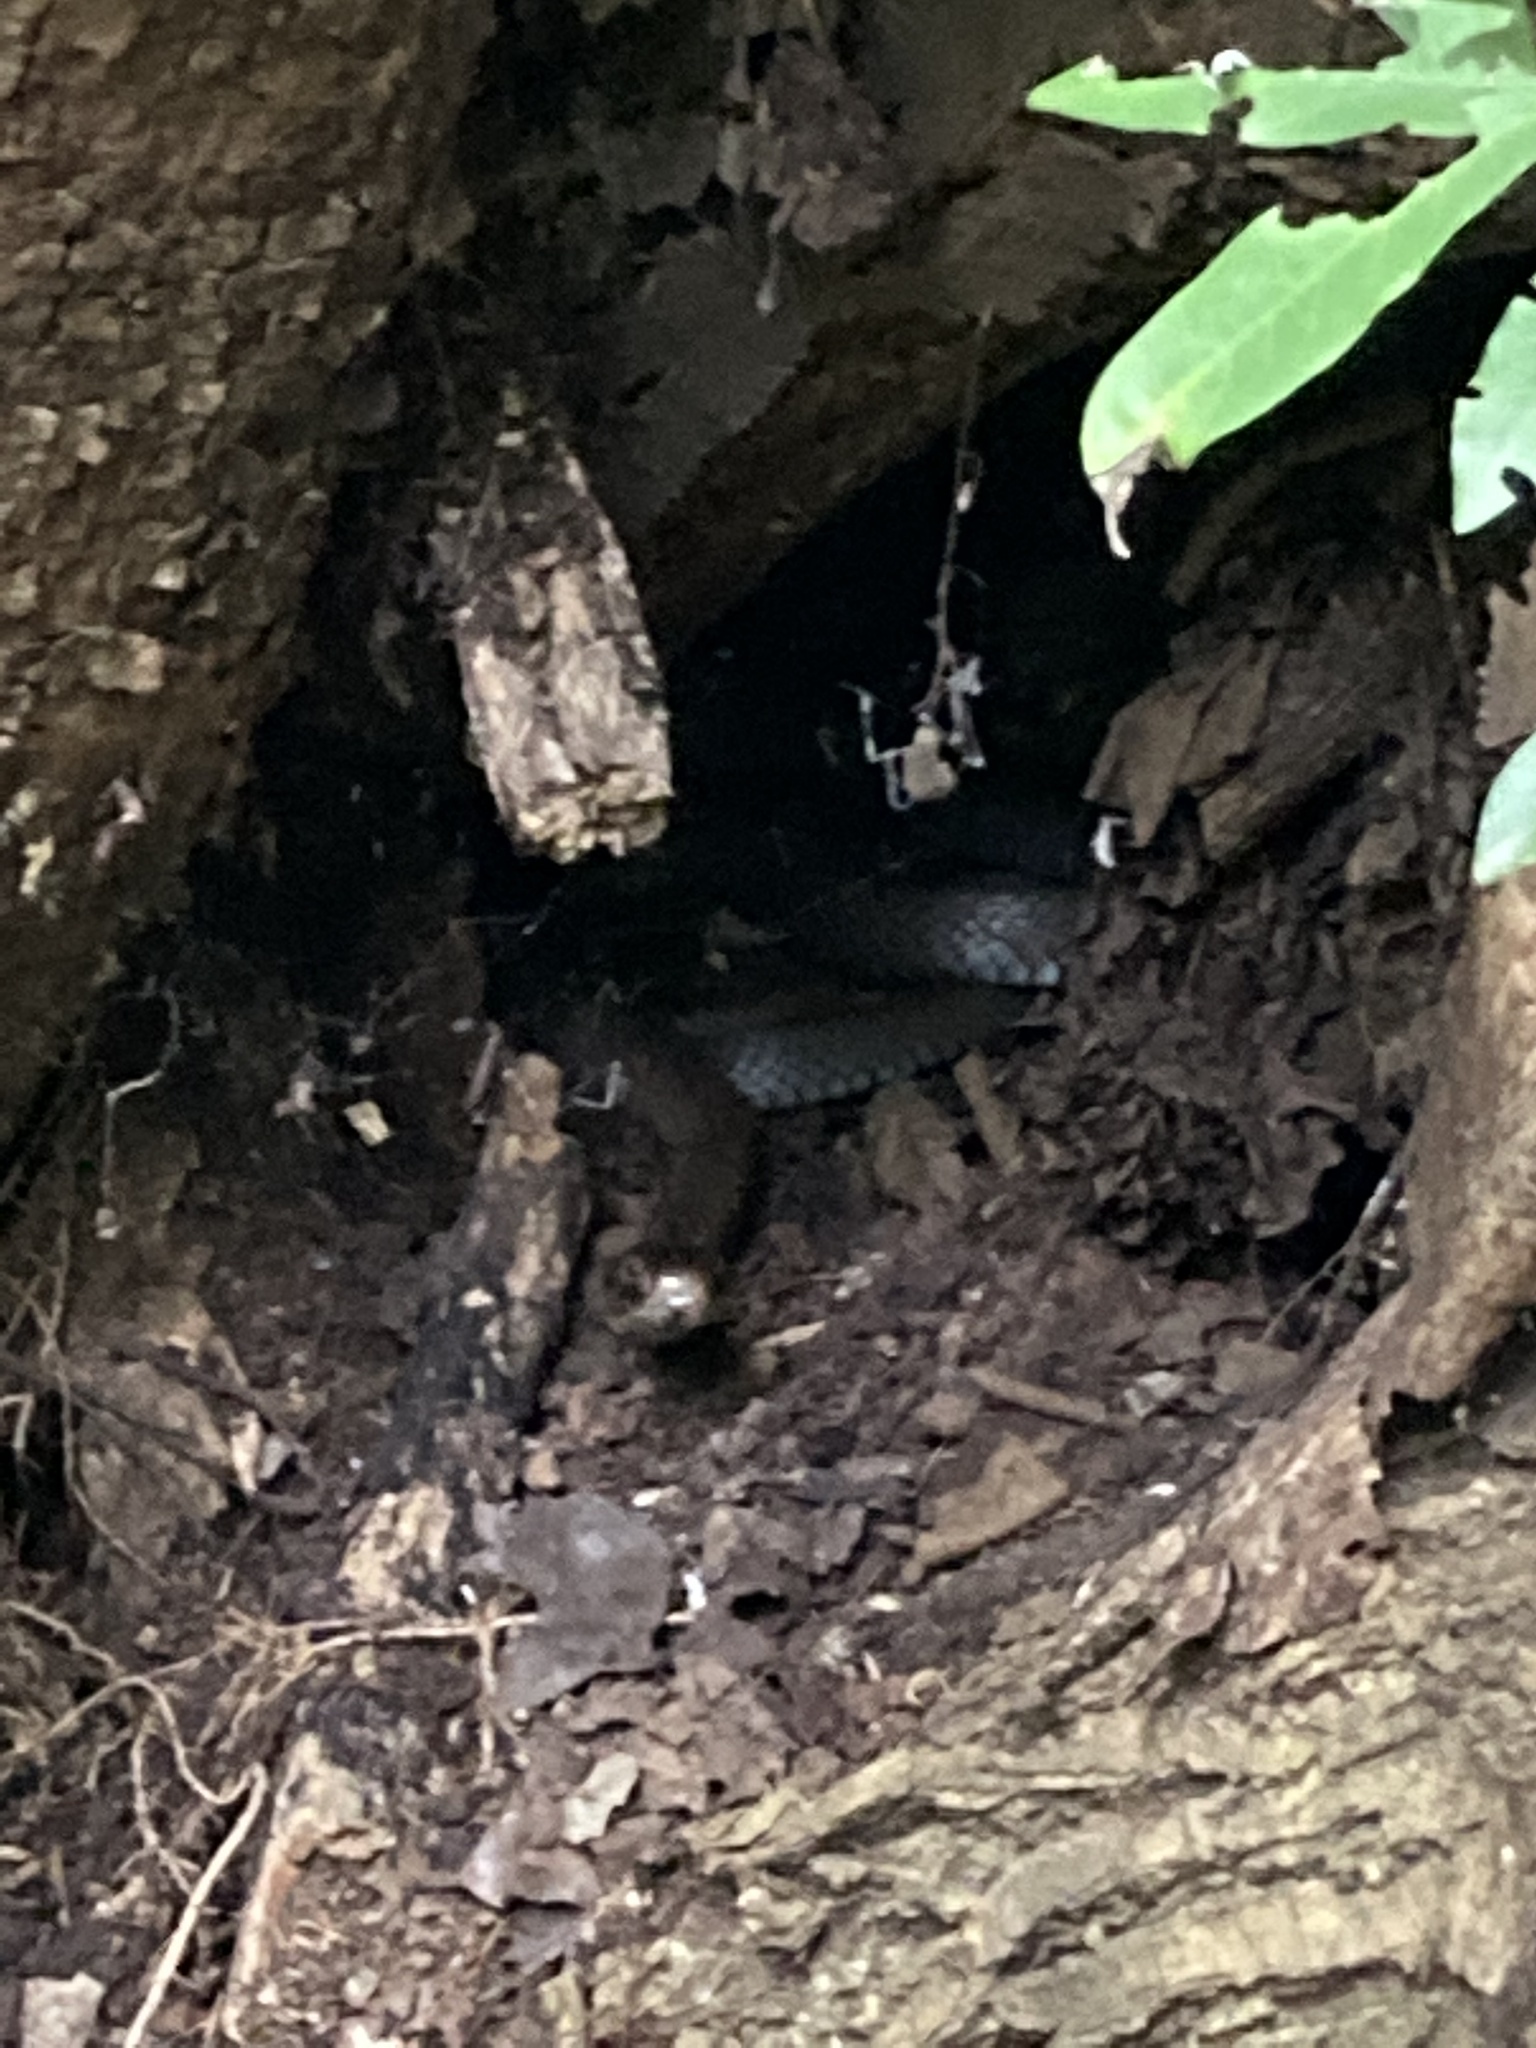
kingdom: Animalia
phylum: Chordata
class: Squamata
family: Elapidae
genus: Naja
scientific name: Naja mossambica
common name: Mozambique spitting cobra
